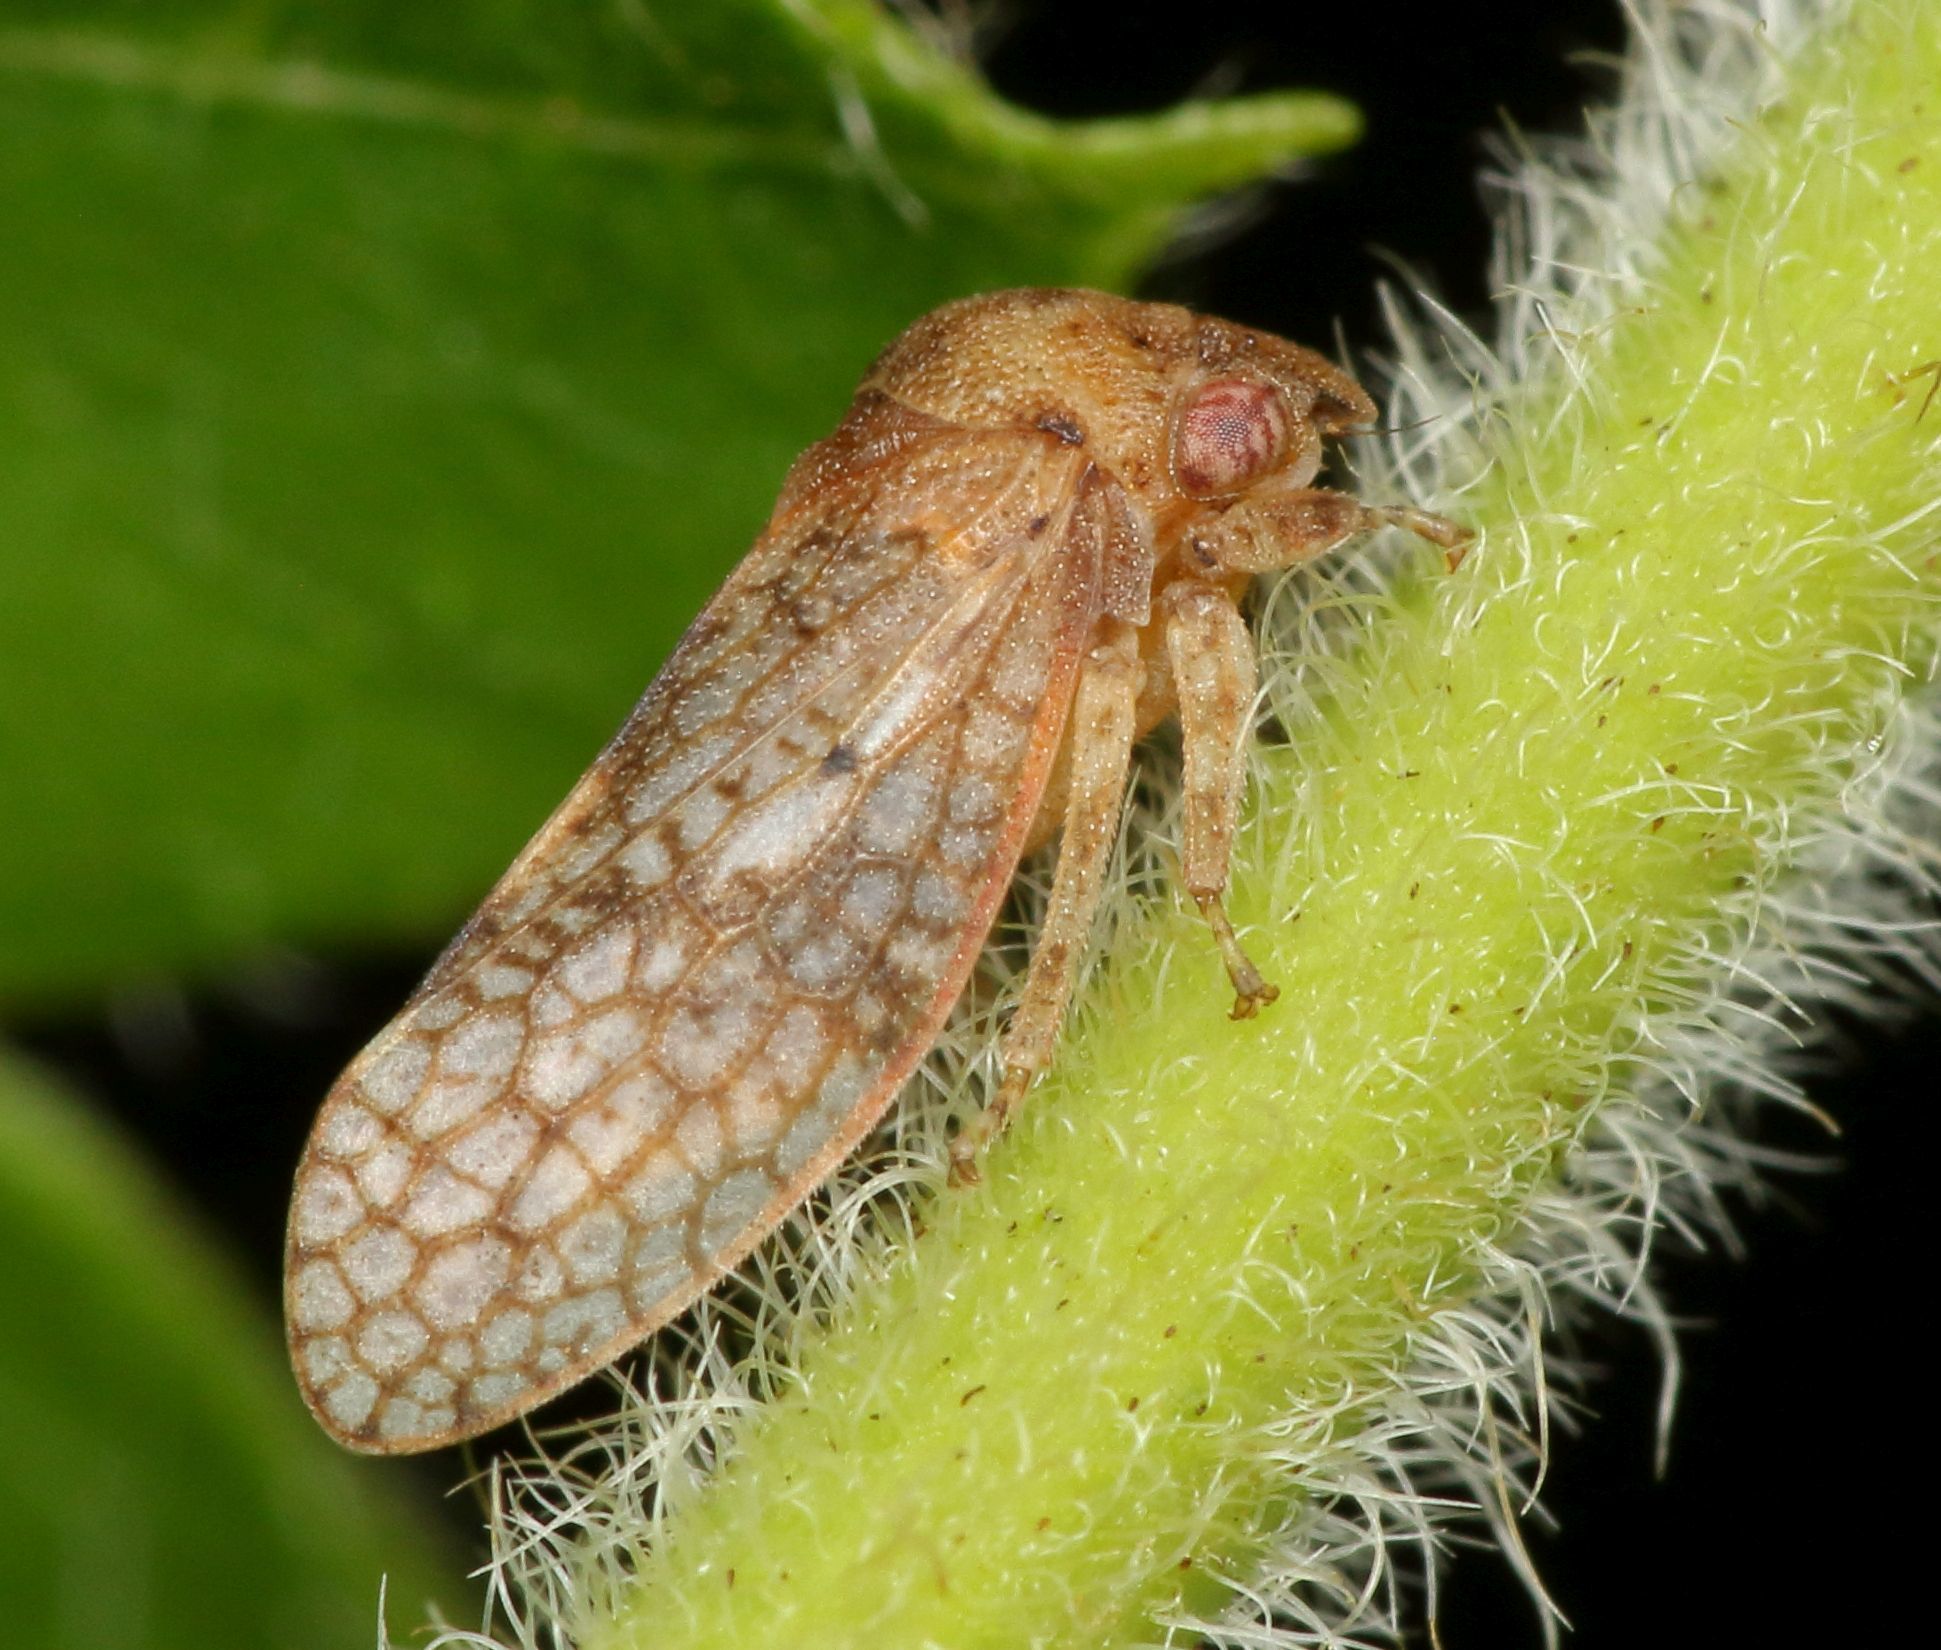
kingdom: Animalia
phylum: Arthropoda
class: Insecta
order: Hemiptera
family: Cicadellidae
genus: Coloborrhis
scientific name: Coloborrhis corticina
